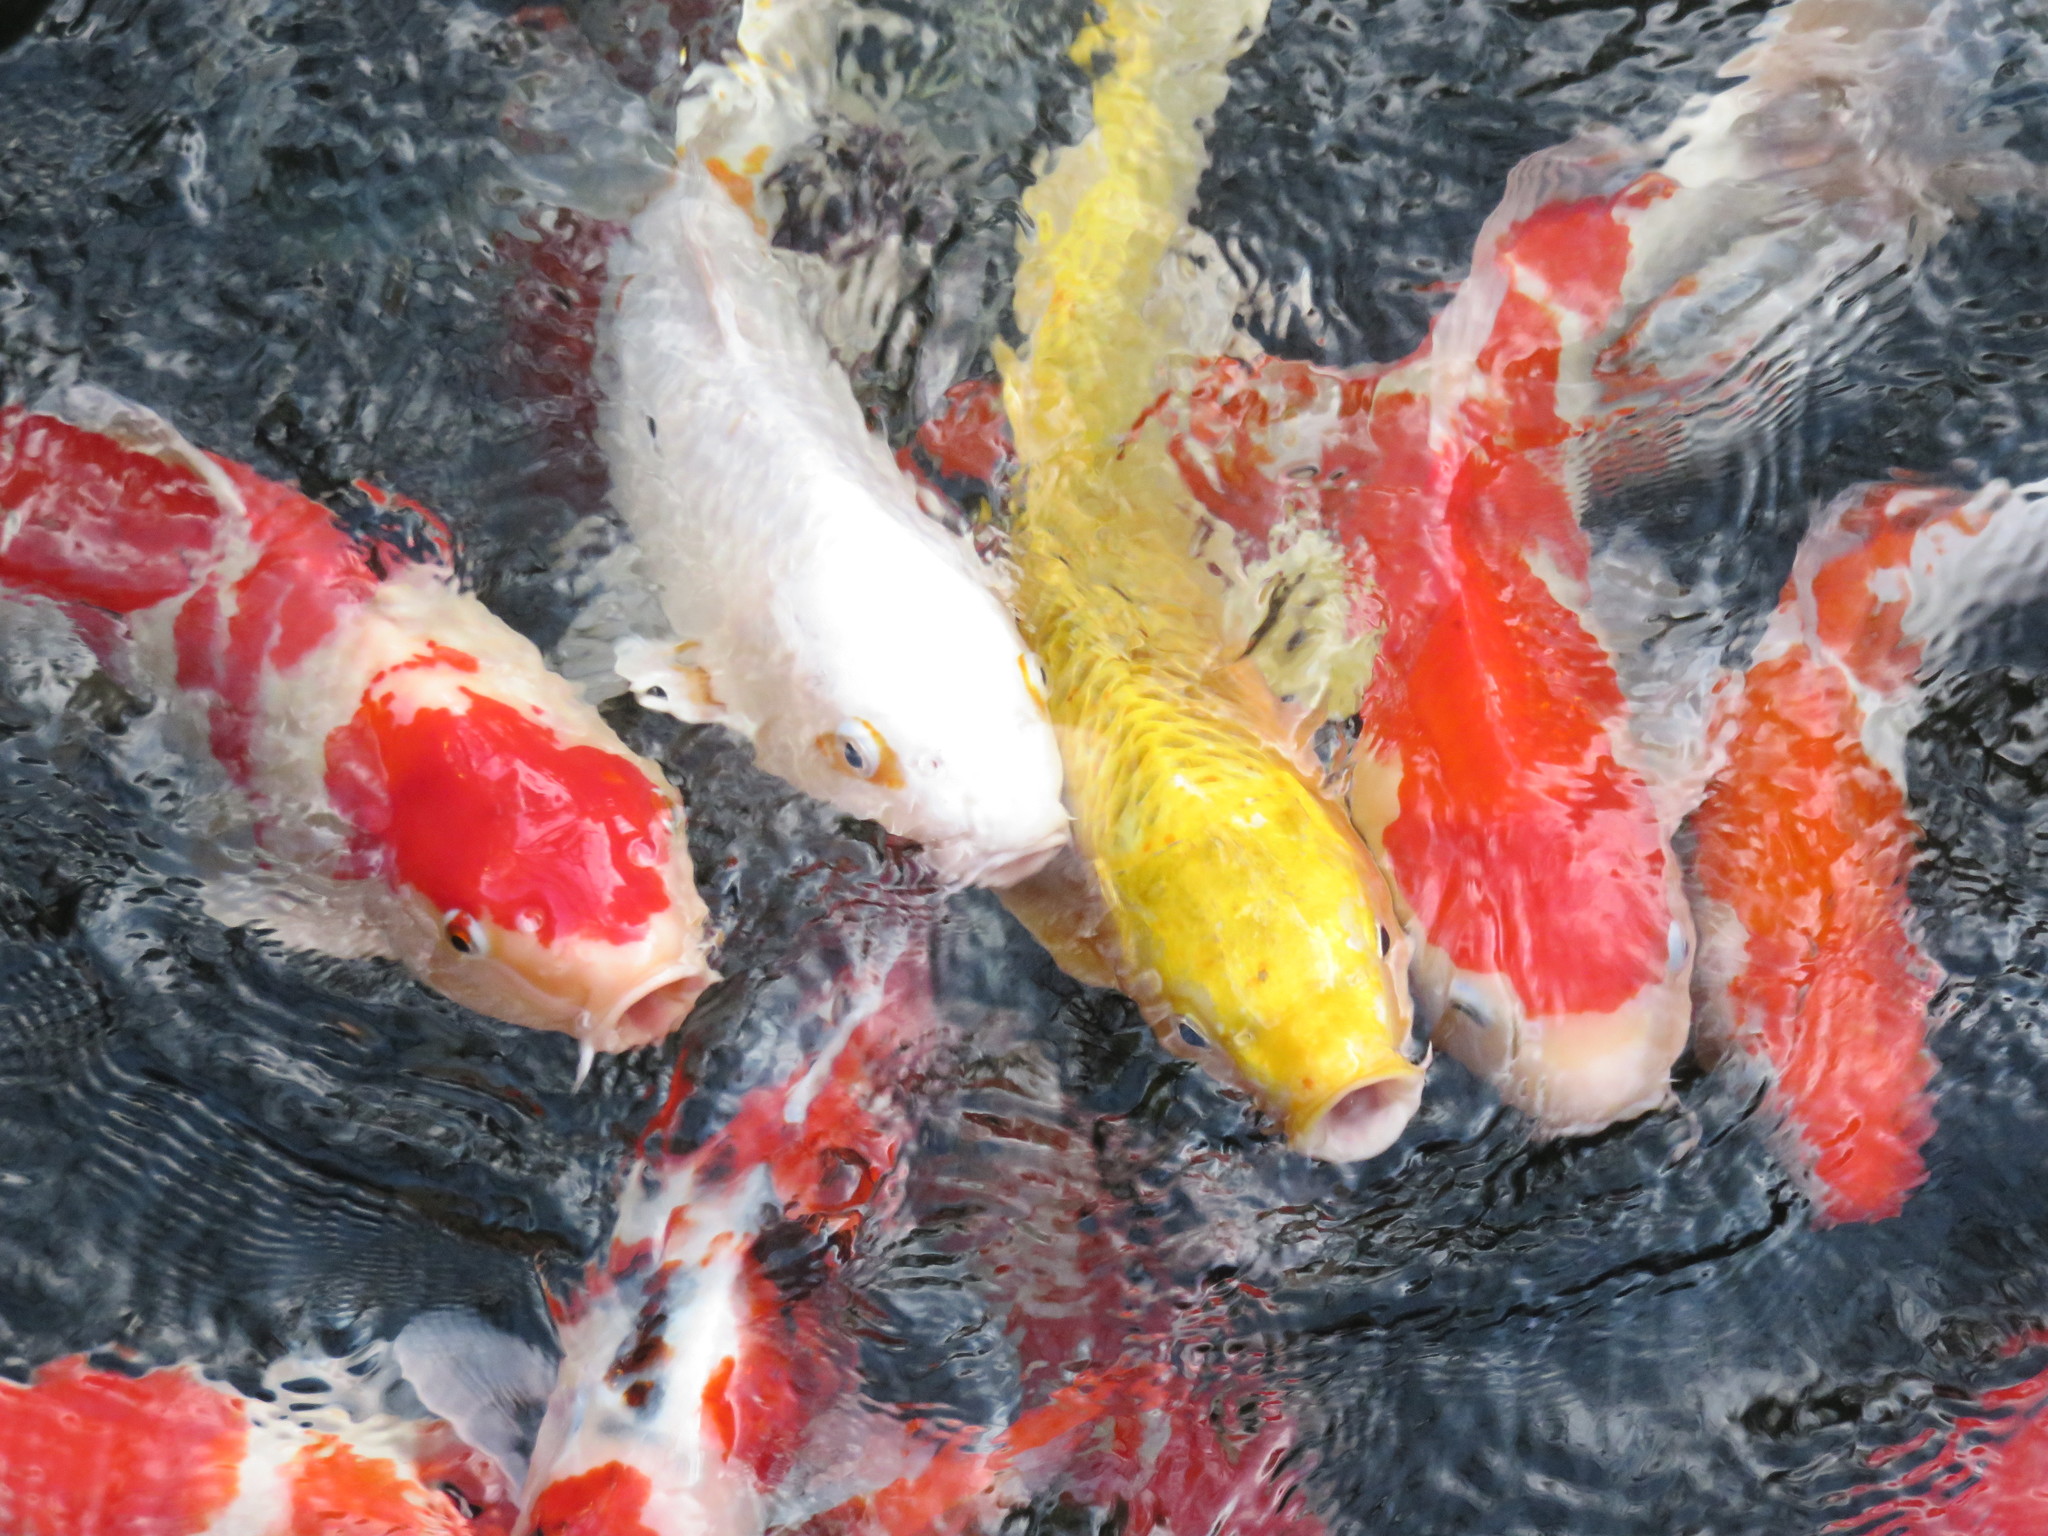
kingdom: Animalia
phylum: Chordata
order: Cypriniformes
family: Cyprinidae
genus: Cyprinus
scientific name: Cyprinus rubrofuscus
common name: Koi
